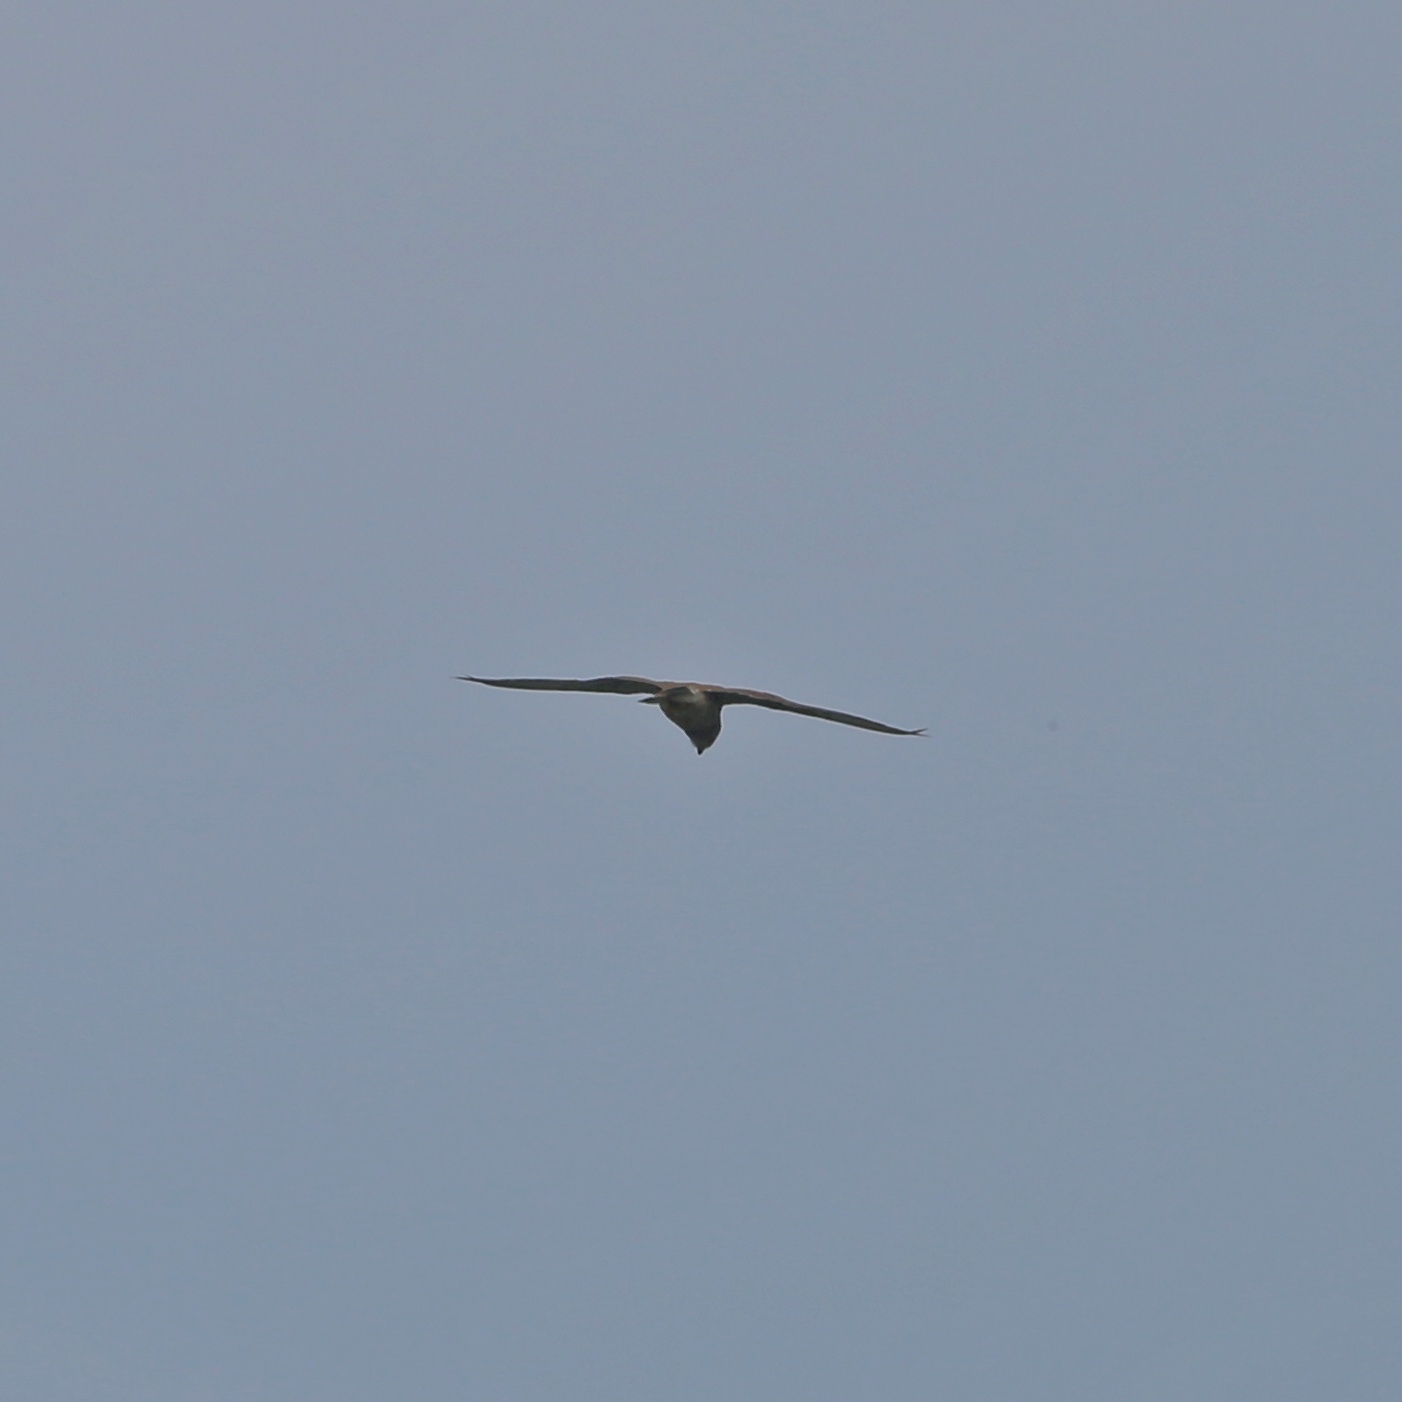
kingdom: Animalia
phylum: Chordata
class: Aves
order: Falconiformes
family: Falconidae
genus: Falco
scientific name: Falco tinnunculus
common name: Common kestrel
